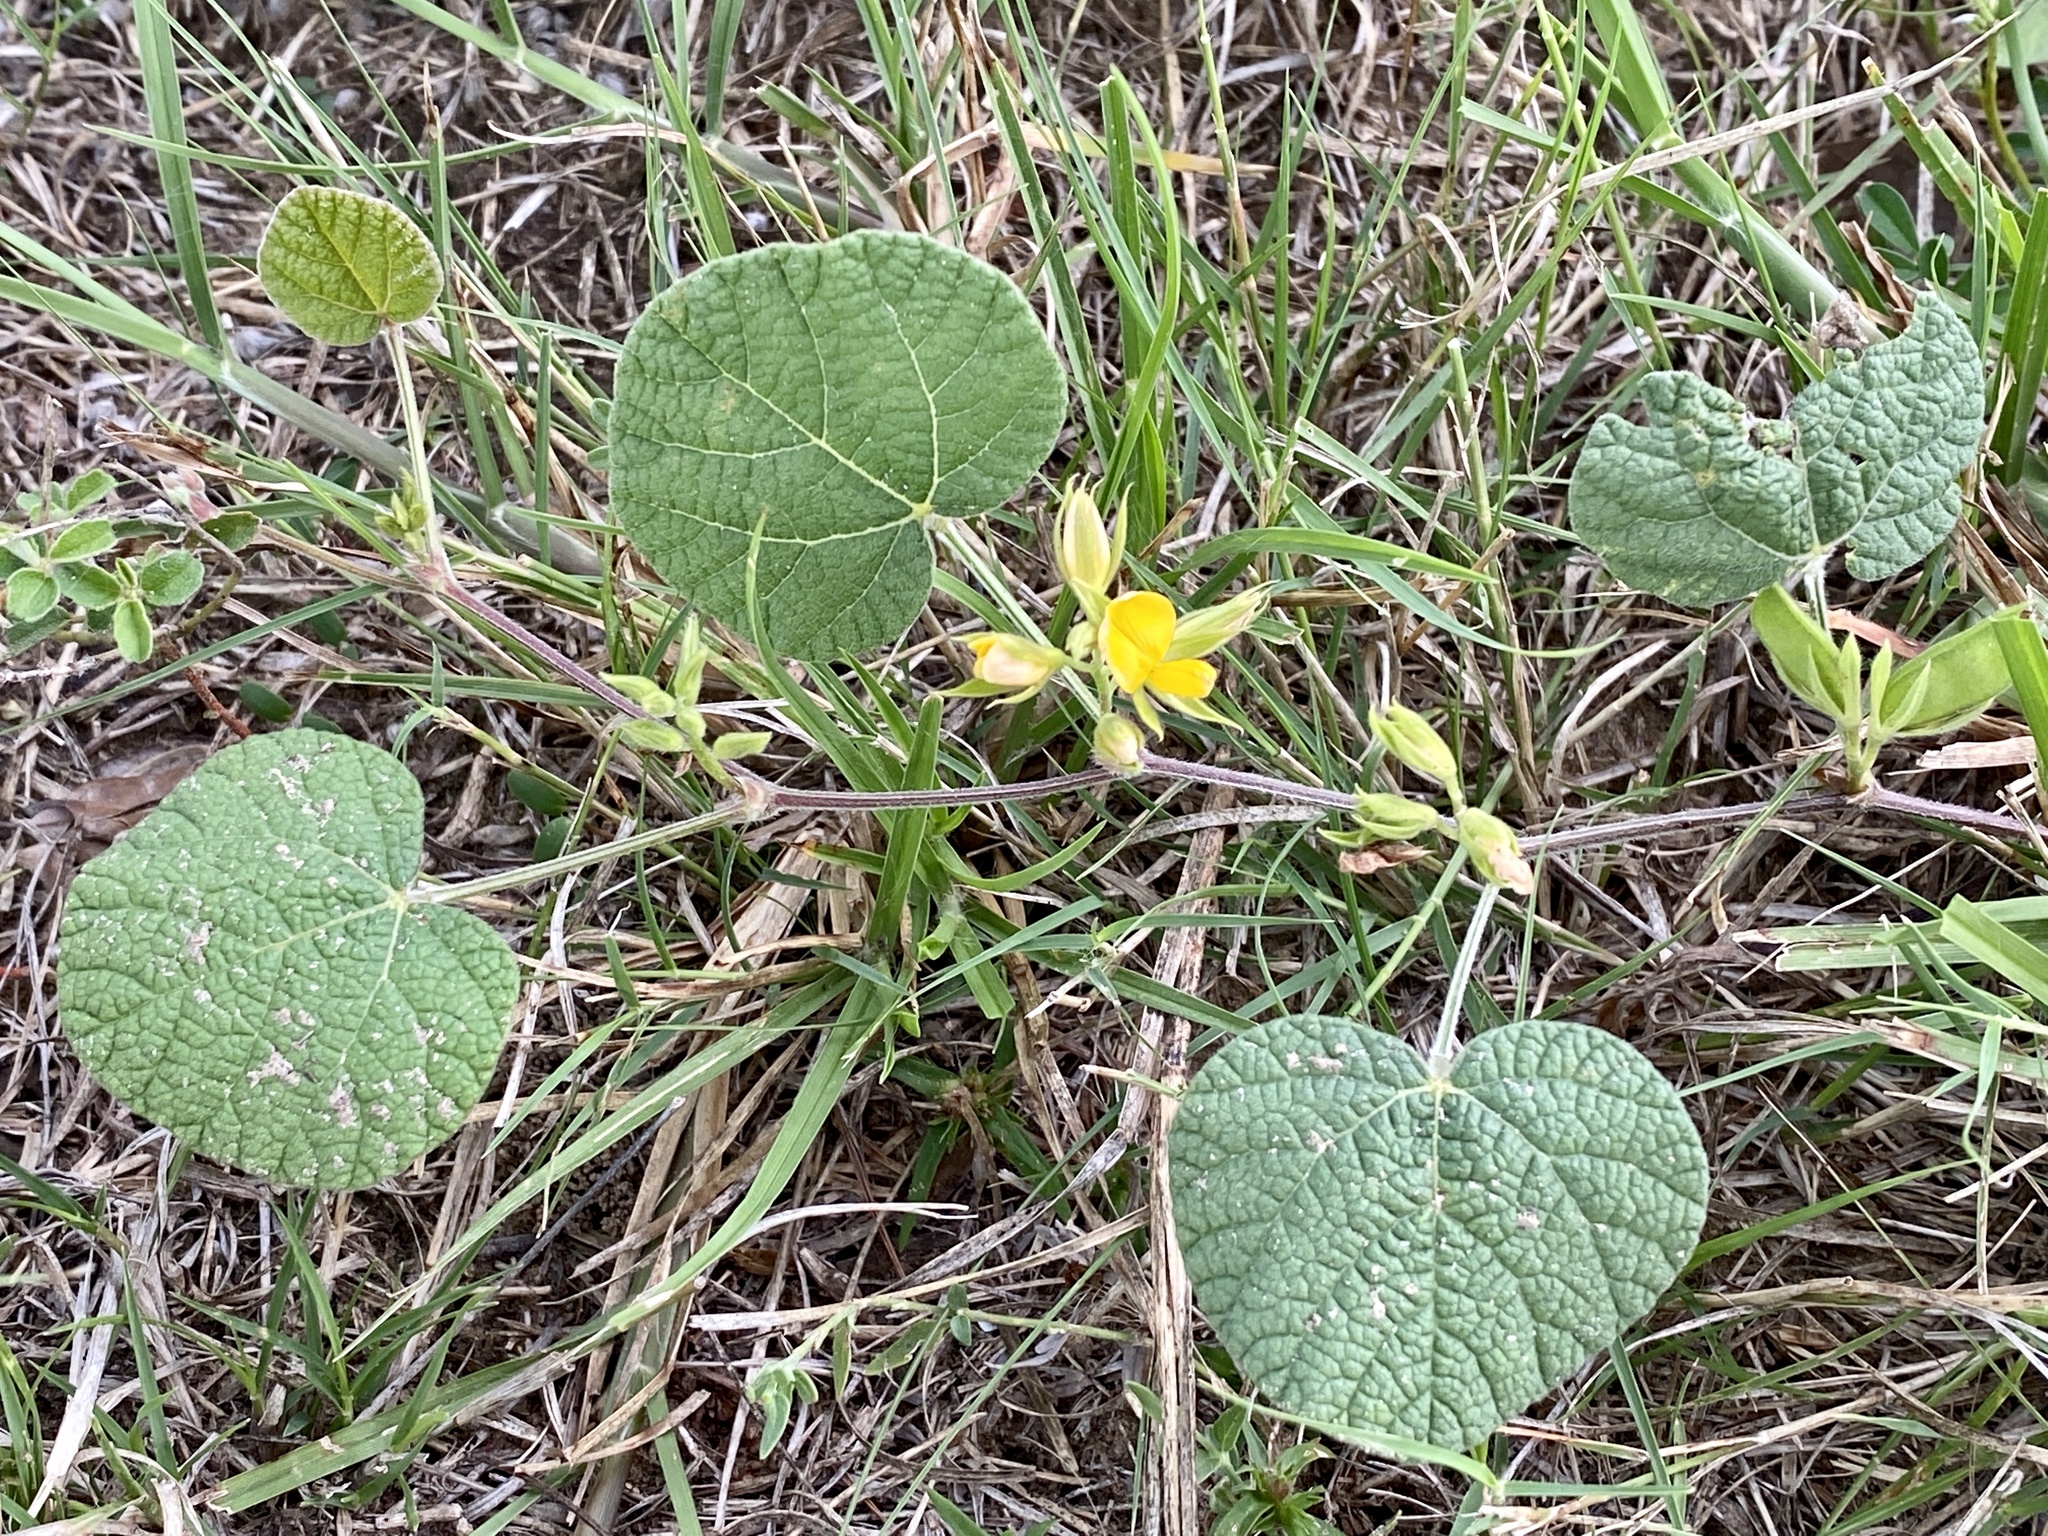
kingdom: Plantae
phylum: Tracheophyta
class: Magnoliopsida
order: Fabales
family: Fabaceae
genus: Rhynchosia
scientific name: Rhynchosia americana
